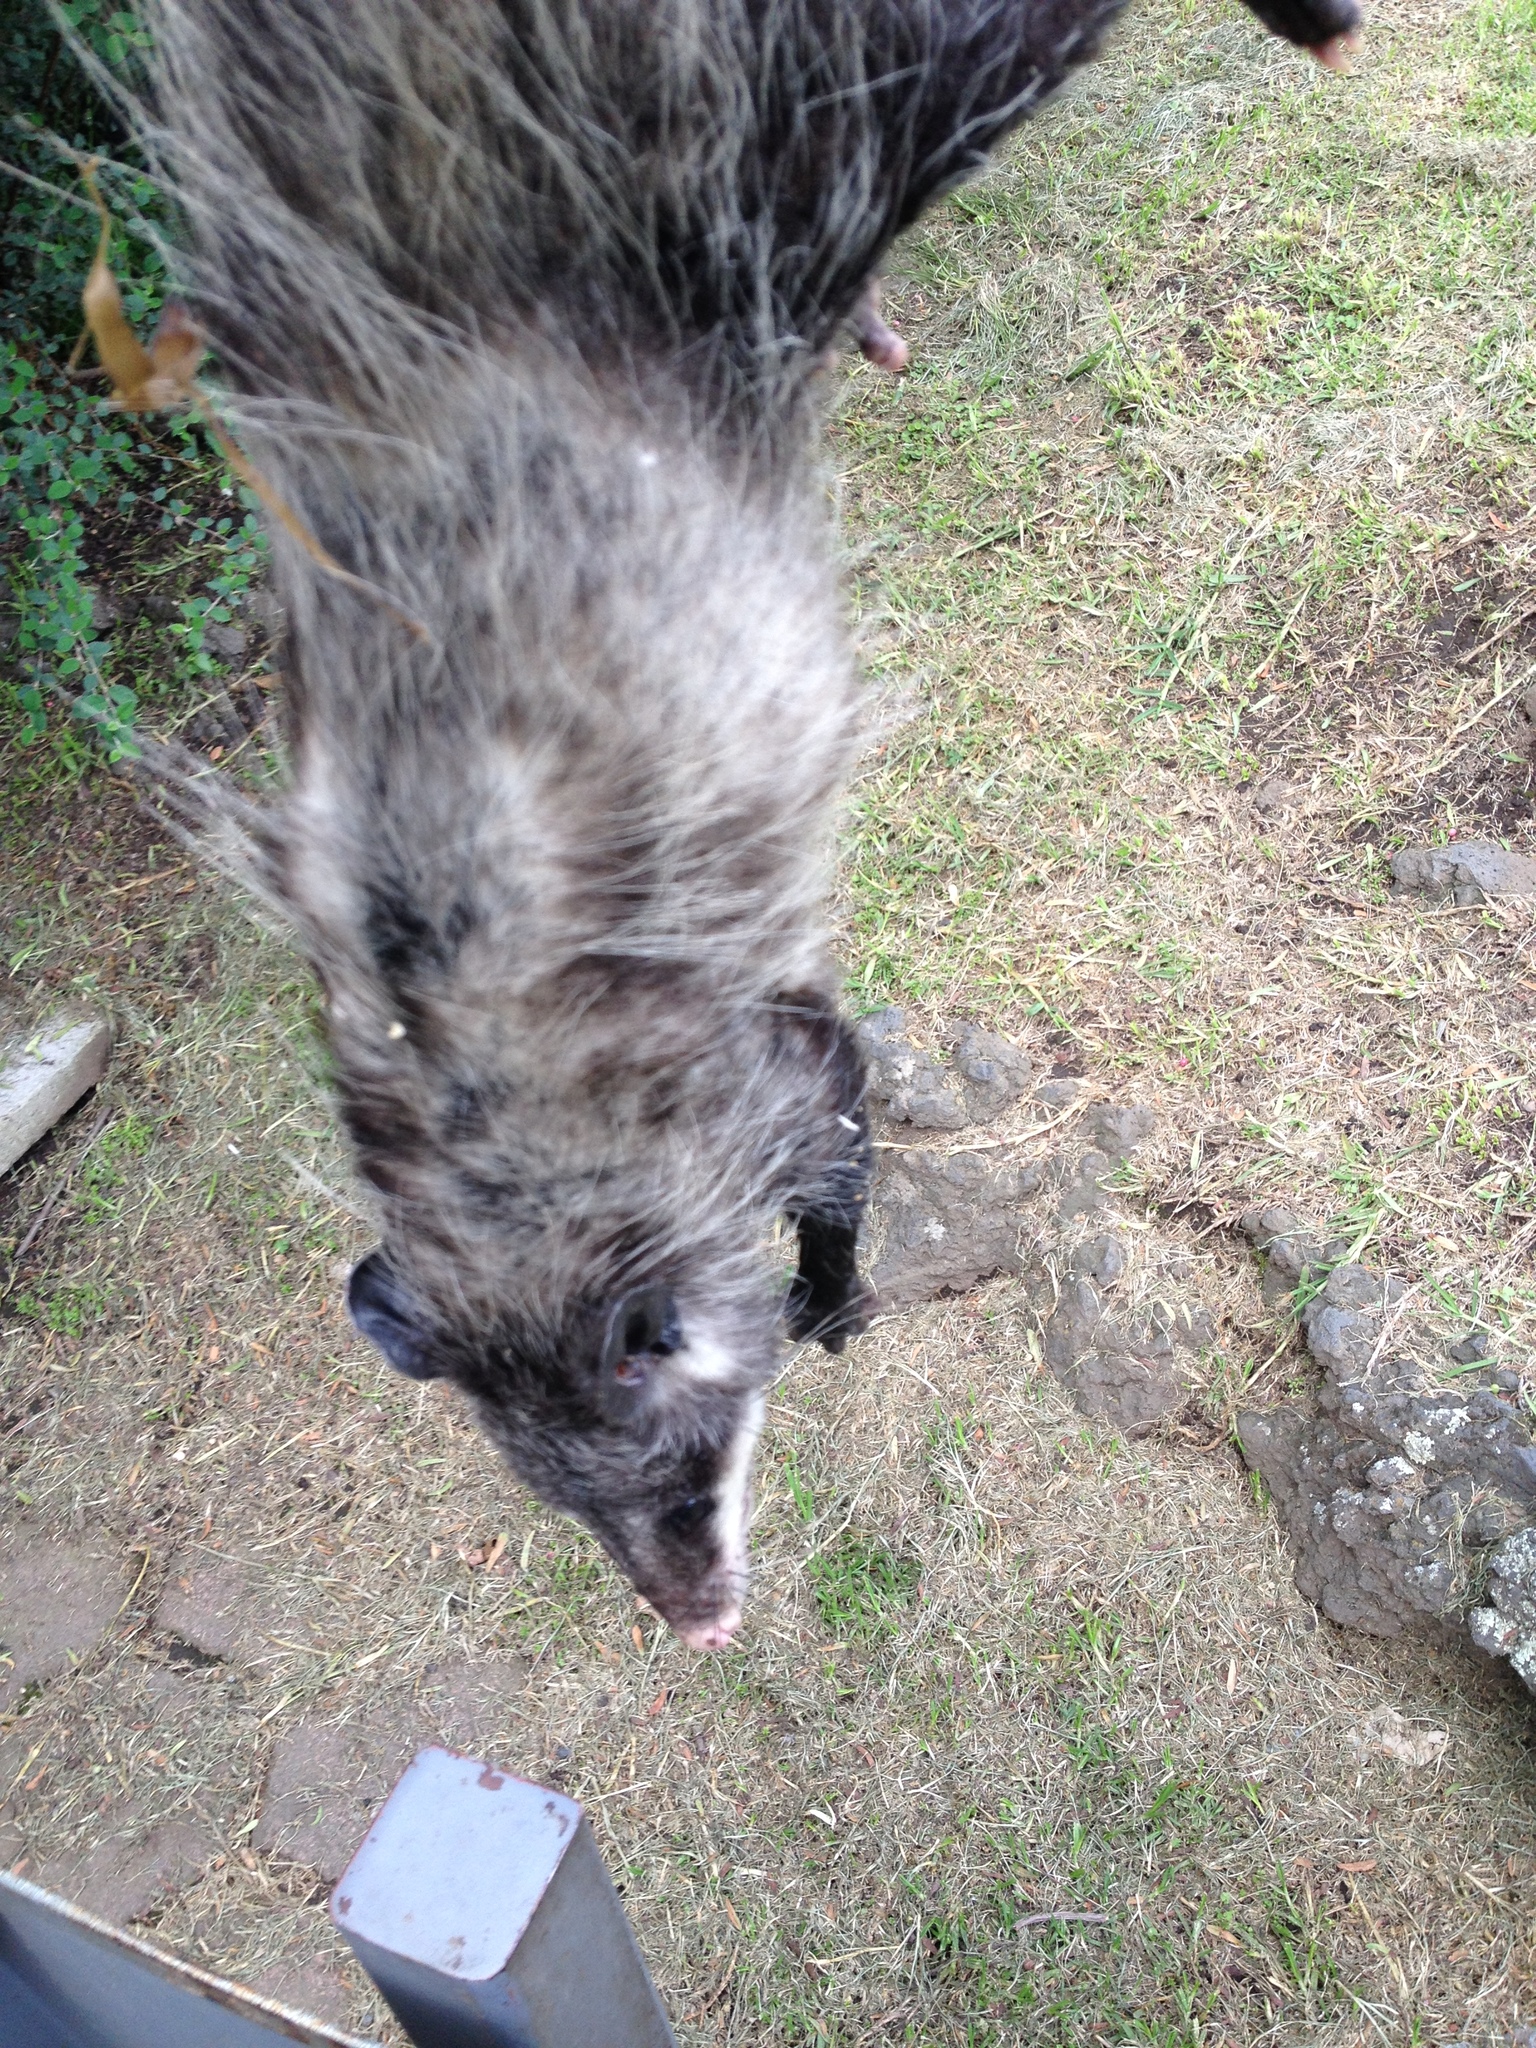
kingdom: Animalia
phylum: Chordata
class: Mammalia
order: Didelphimorphia
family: Didelphidae
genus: Didelphis
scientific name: Didelphis virginiana
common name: Virginia opossum
